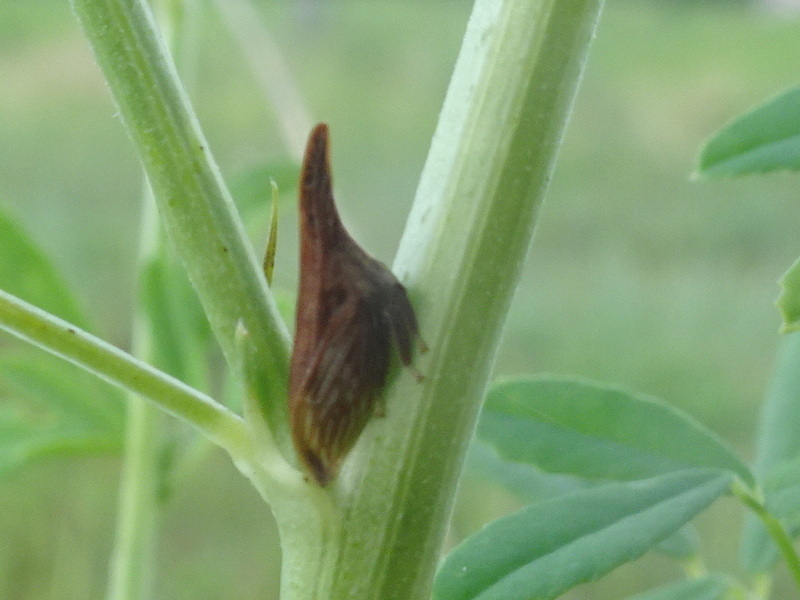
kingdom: Animalia
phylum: Arthropoda
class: Insecta
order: Hemiptera
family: Membracidae
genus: Enchenopa
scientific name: Enchenopa latipes
